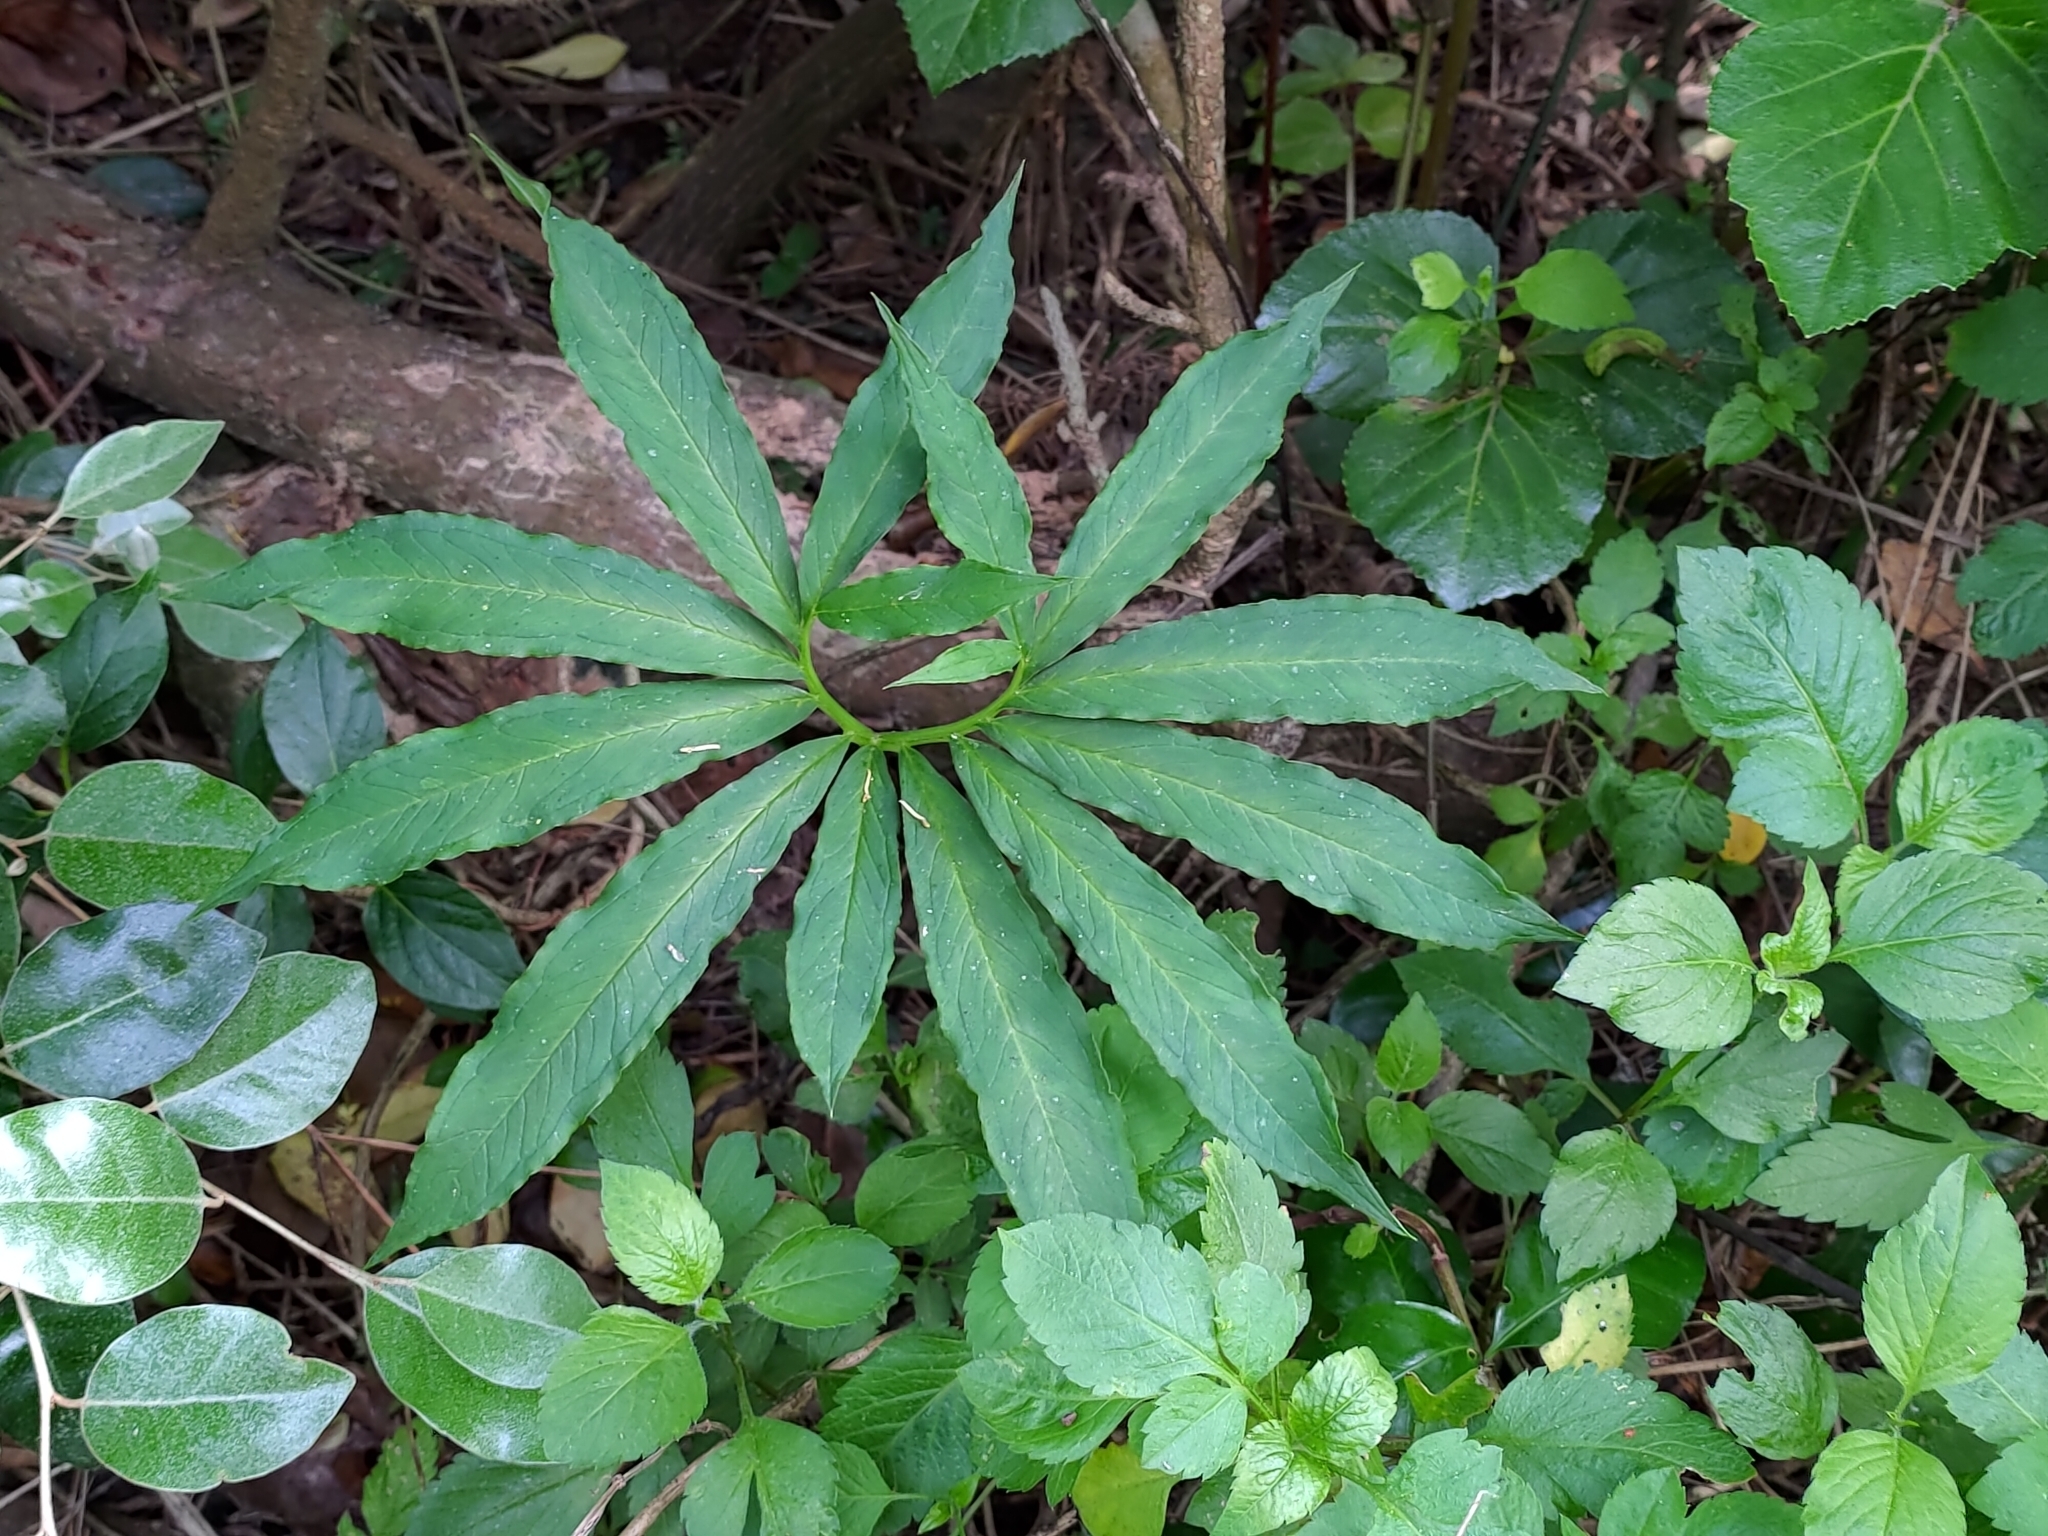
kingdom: Plantae
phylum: Tracheophyta
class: Liliopsida
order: Alismatales
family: Araceae
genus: Arisaema
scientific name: Arisaema heterophyllum
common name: Dancing crane cobra lily
